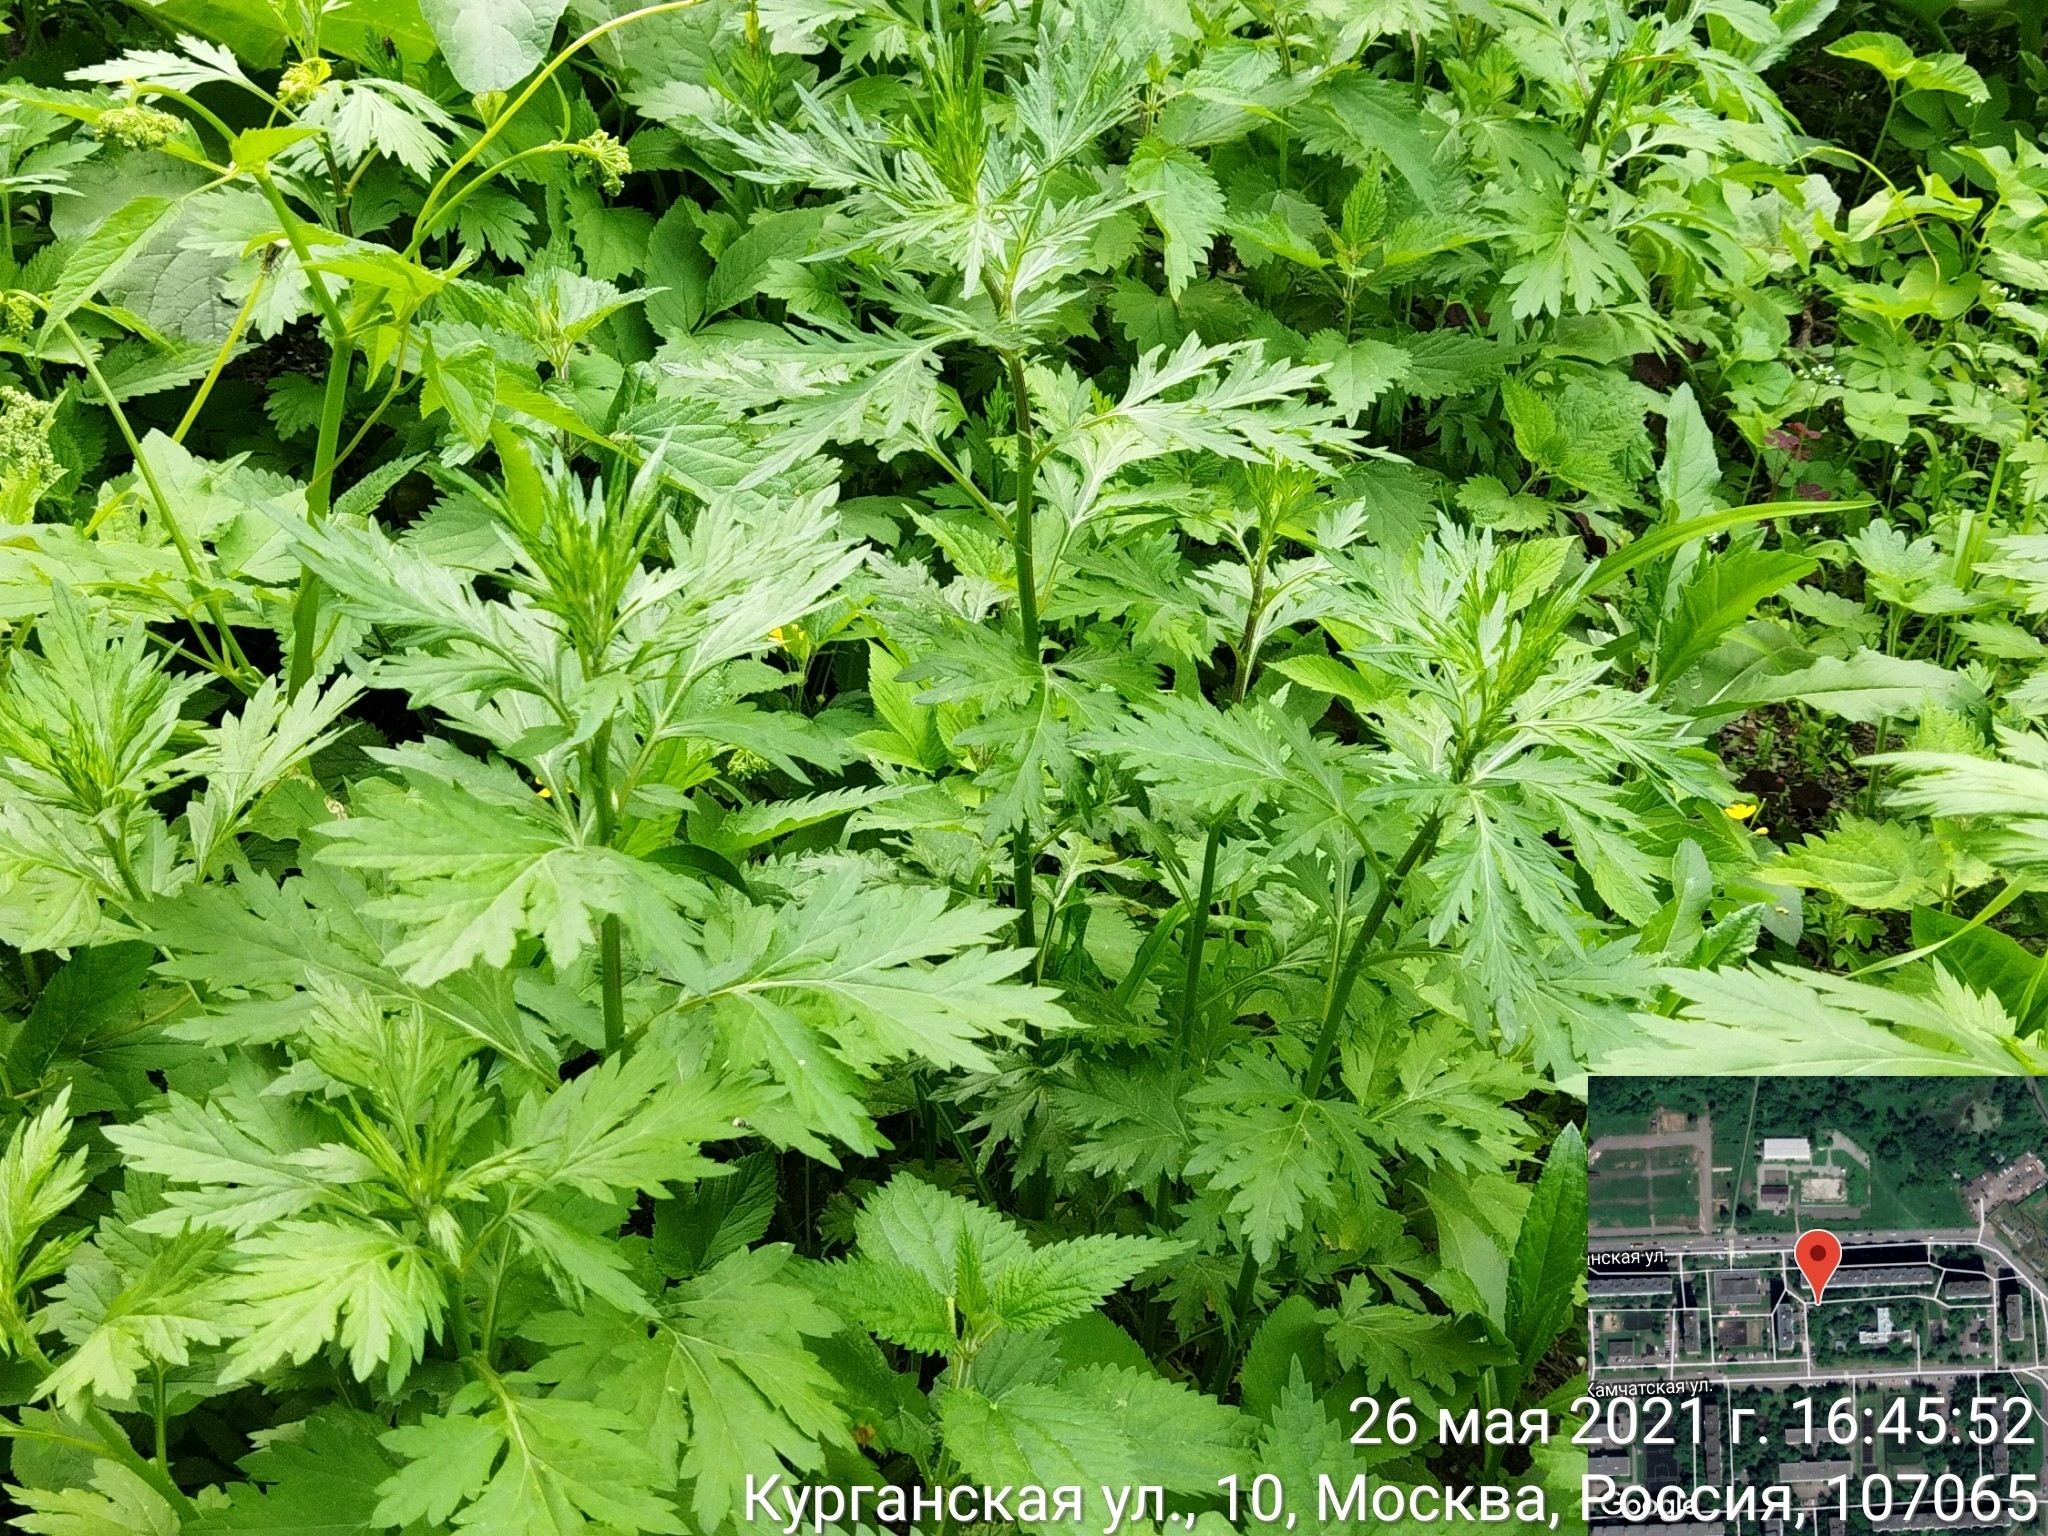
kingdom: Plantae
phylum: Tracheophyta
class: Magnoliopsida
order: Asterales
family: Asteraceae
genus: Artemisia
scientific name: Artemisia vulgaris
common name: Mugwort
